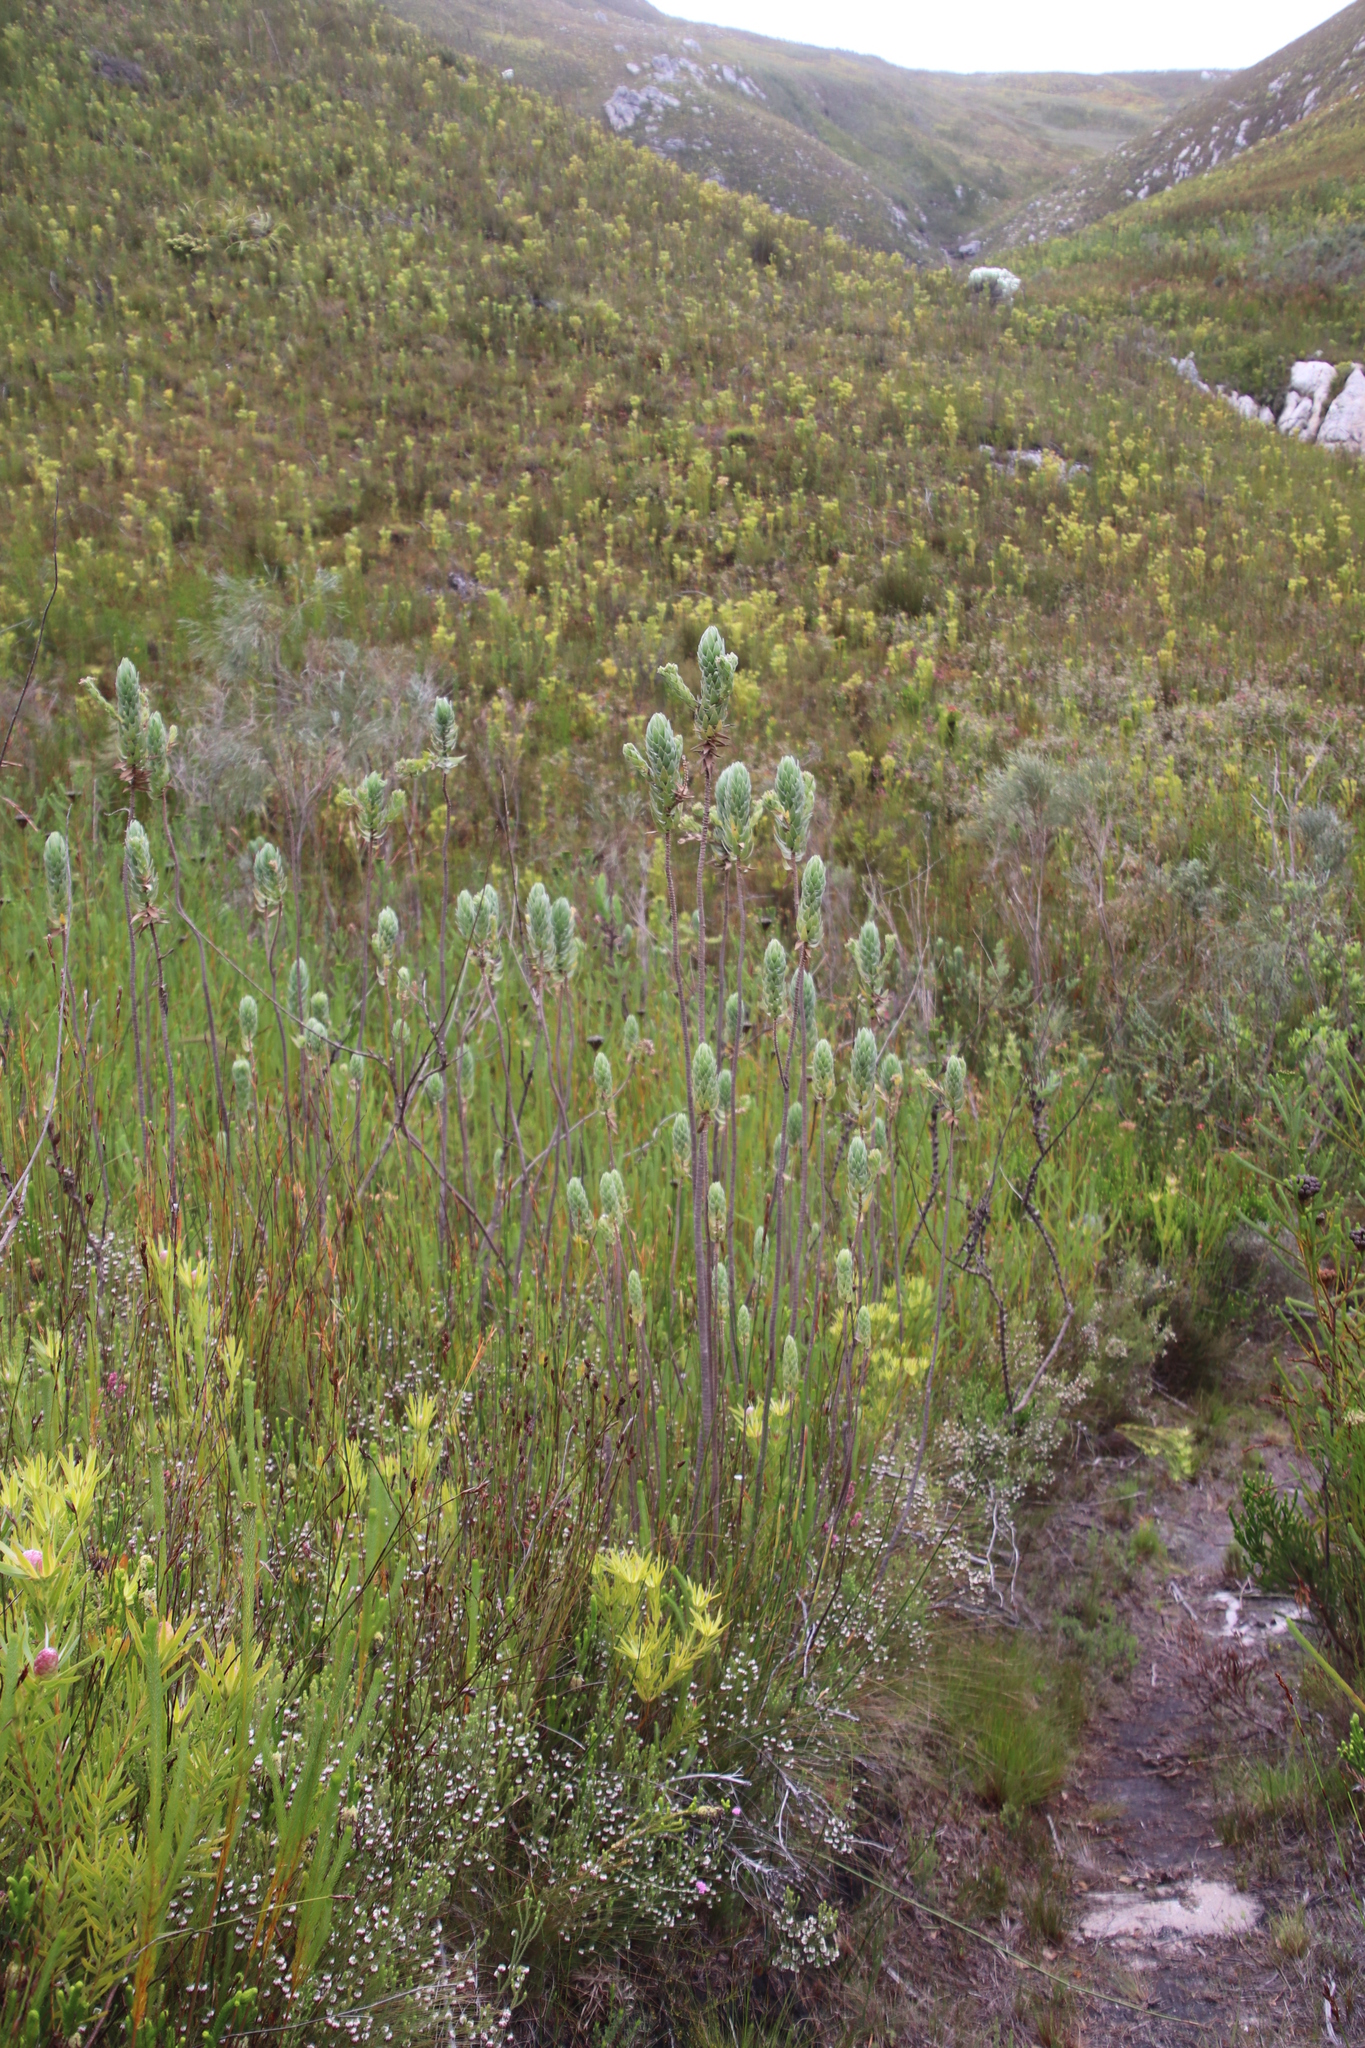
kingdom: Plantae
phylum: Tracheophyta
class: Magnoliopsida
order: Asterales
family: Asteraceae
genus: Osmitopsis
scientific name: Osmitopsis asteriscoides
